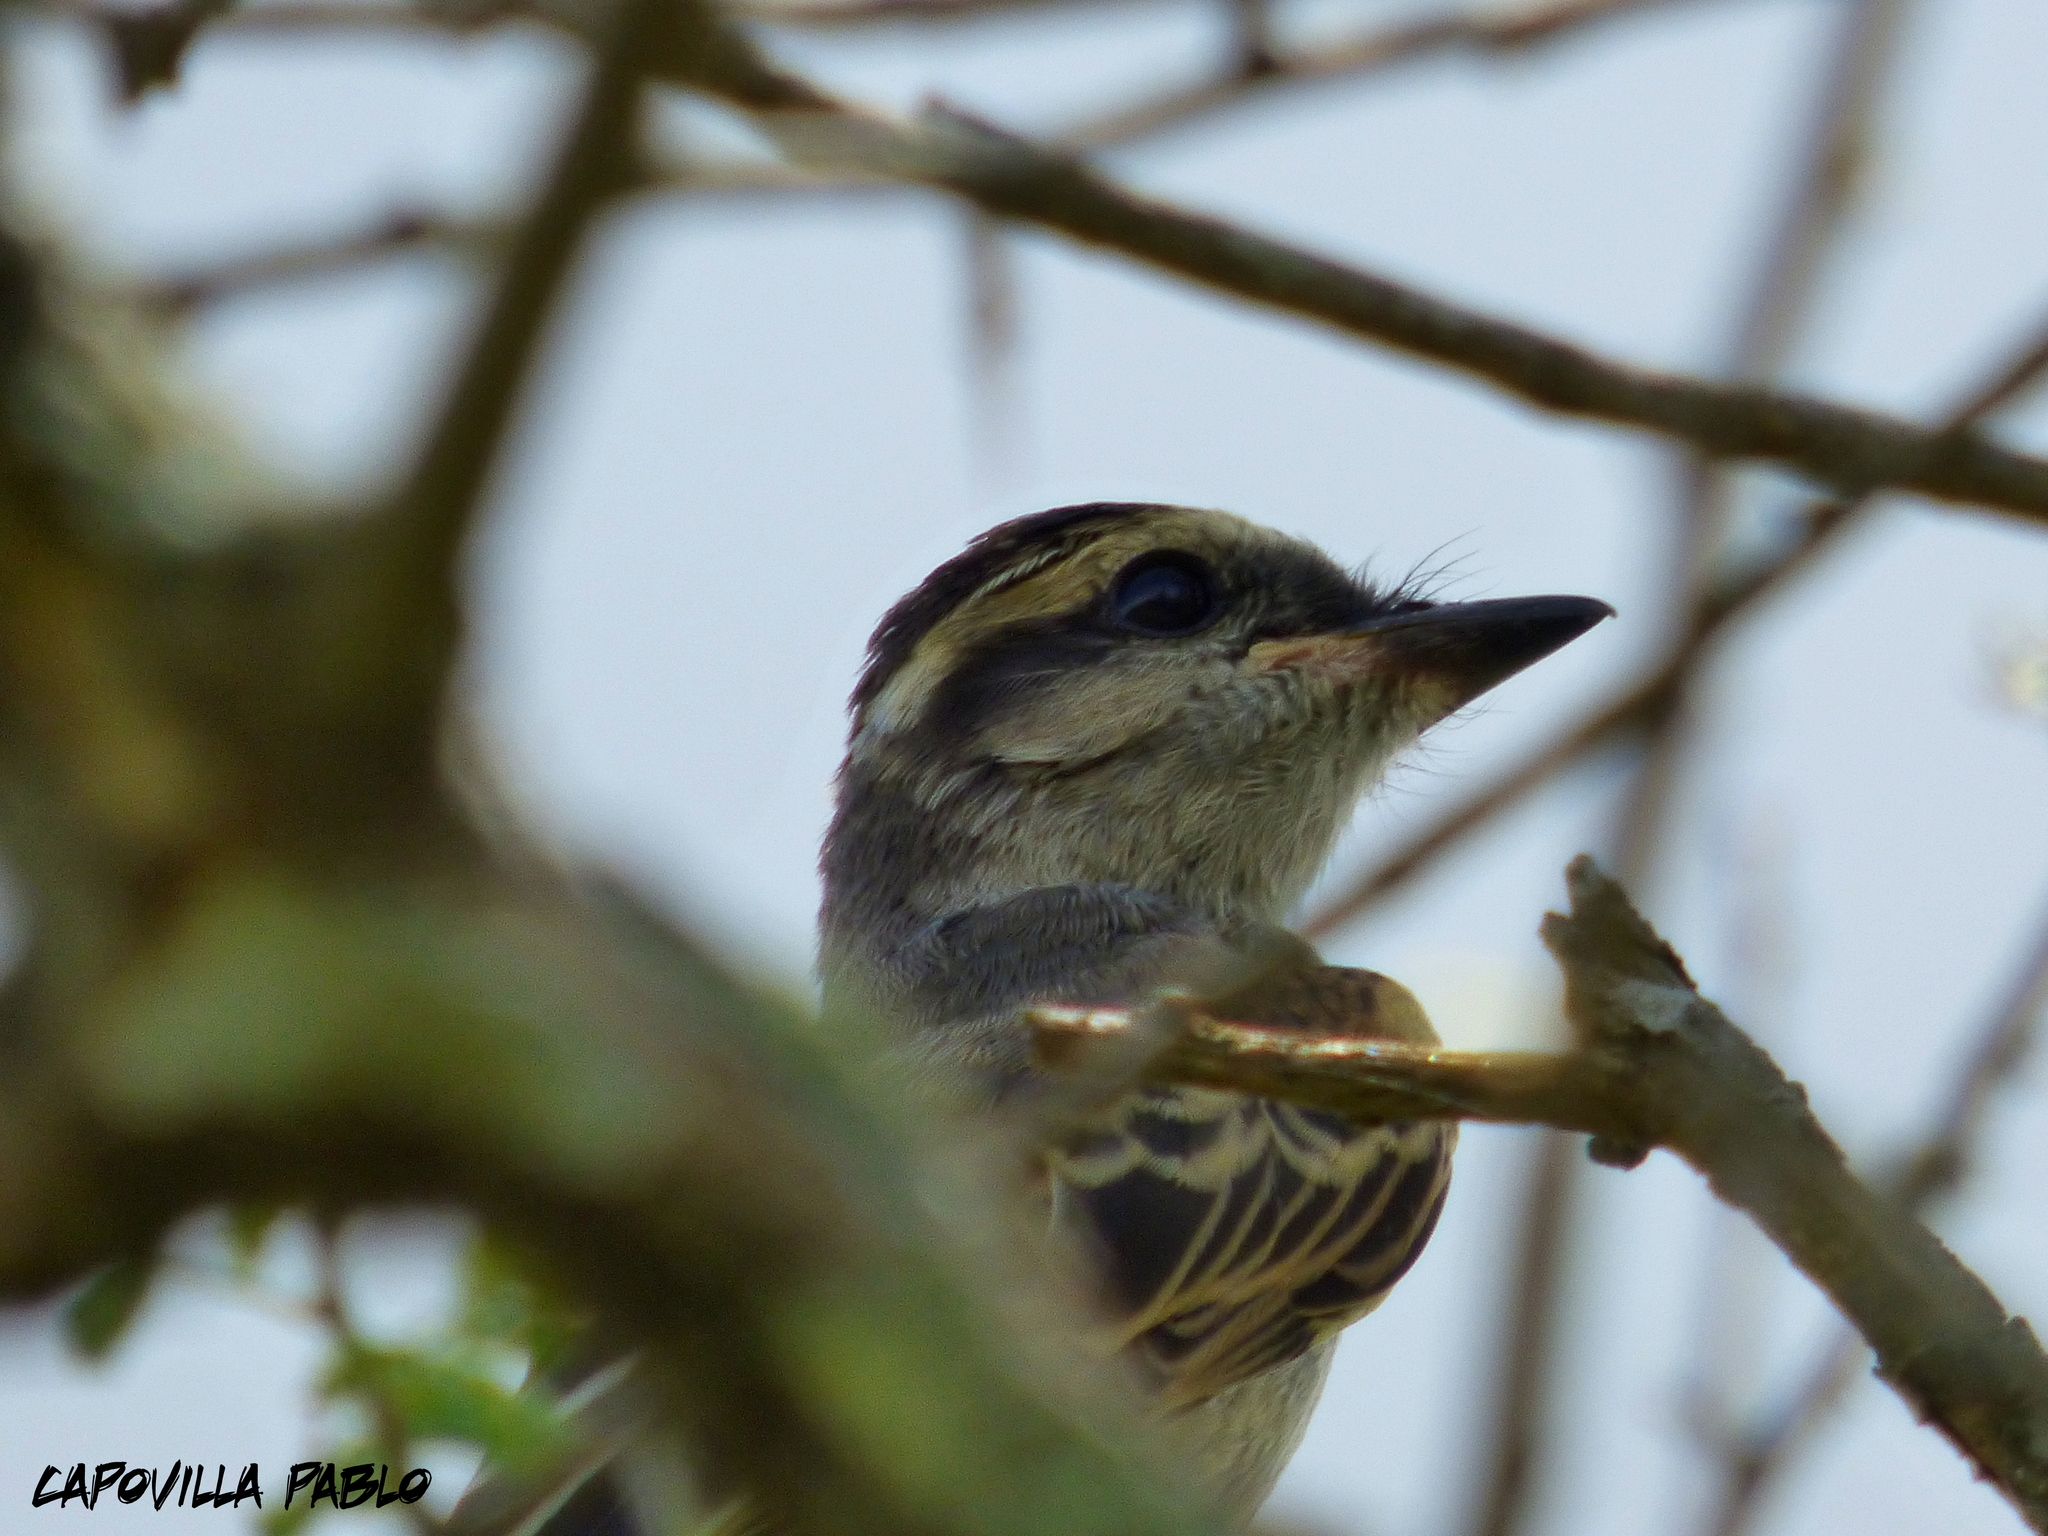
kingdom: Animalia
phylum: Chordata
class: Aves
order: Passeriformes
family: Tyrannidae
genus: Empidonomus
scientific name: Empidonomus aurantioatrocristatus
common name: Crowned slaty flycatcher
